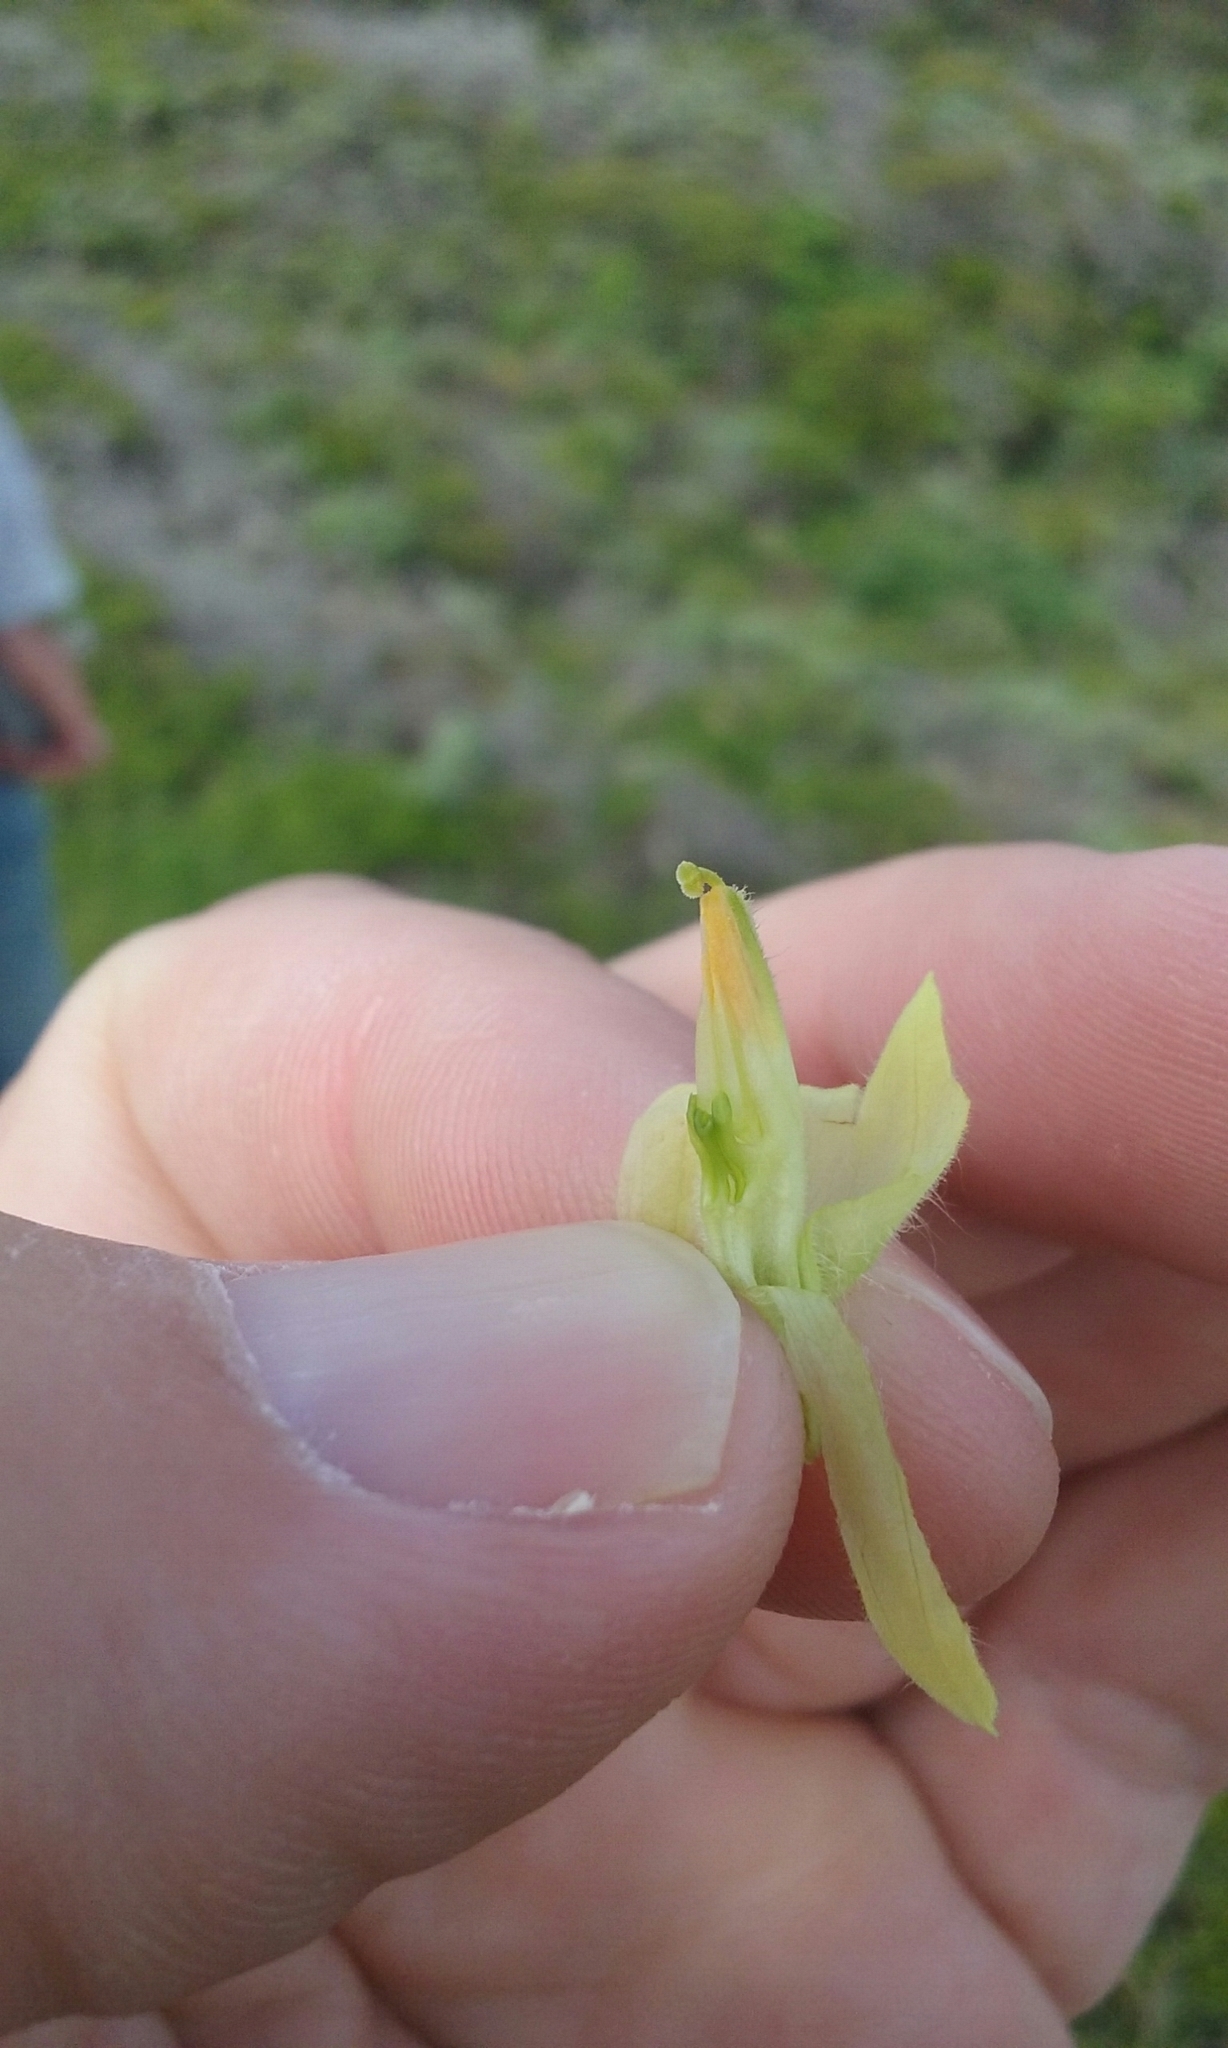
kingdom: Plantae
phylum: Tracheophyta
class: Magnoliopsida
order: Lamiales
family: Orobanchaceae
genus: Castilleja
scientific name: Castilleja wightii
